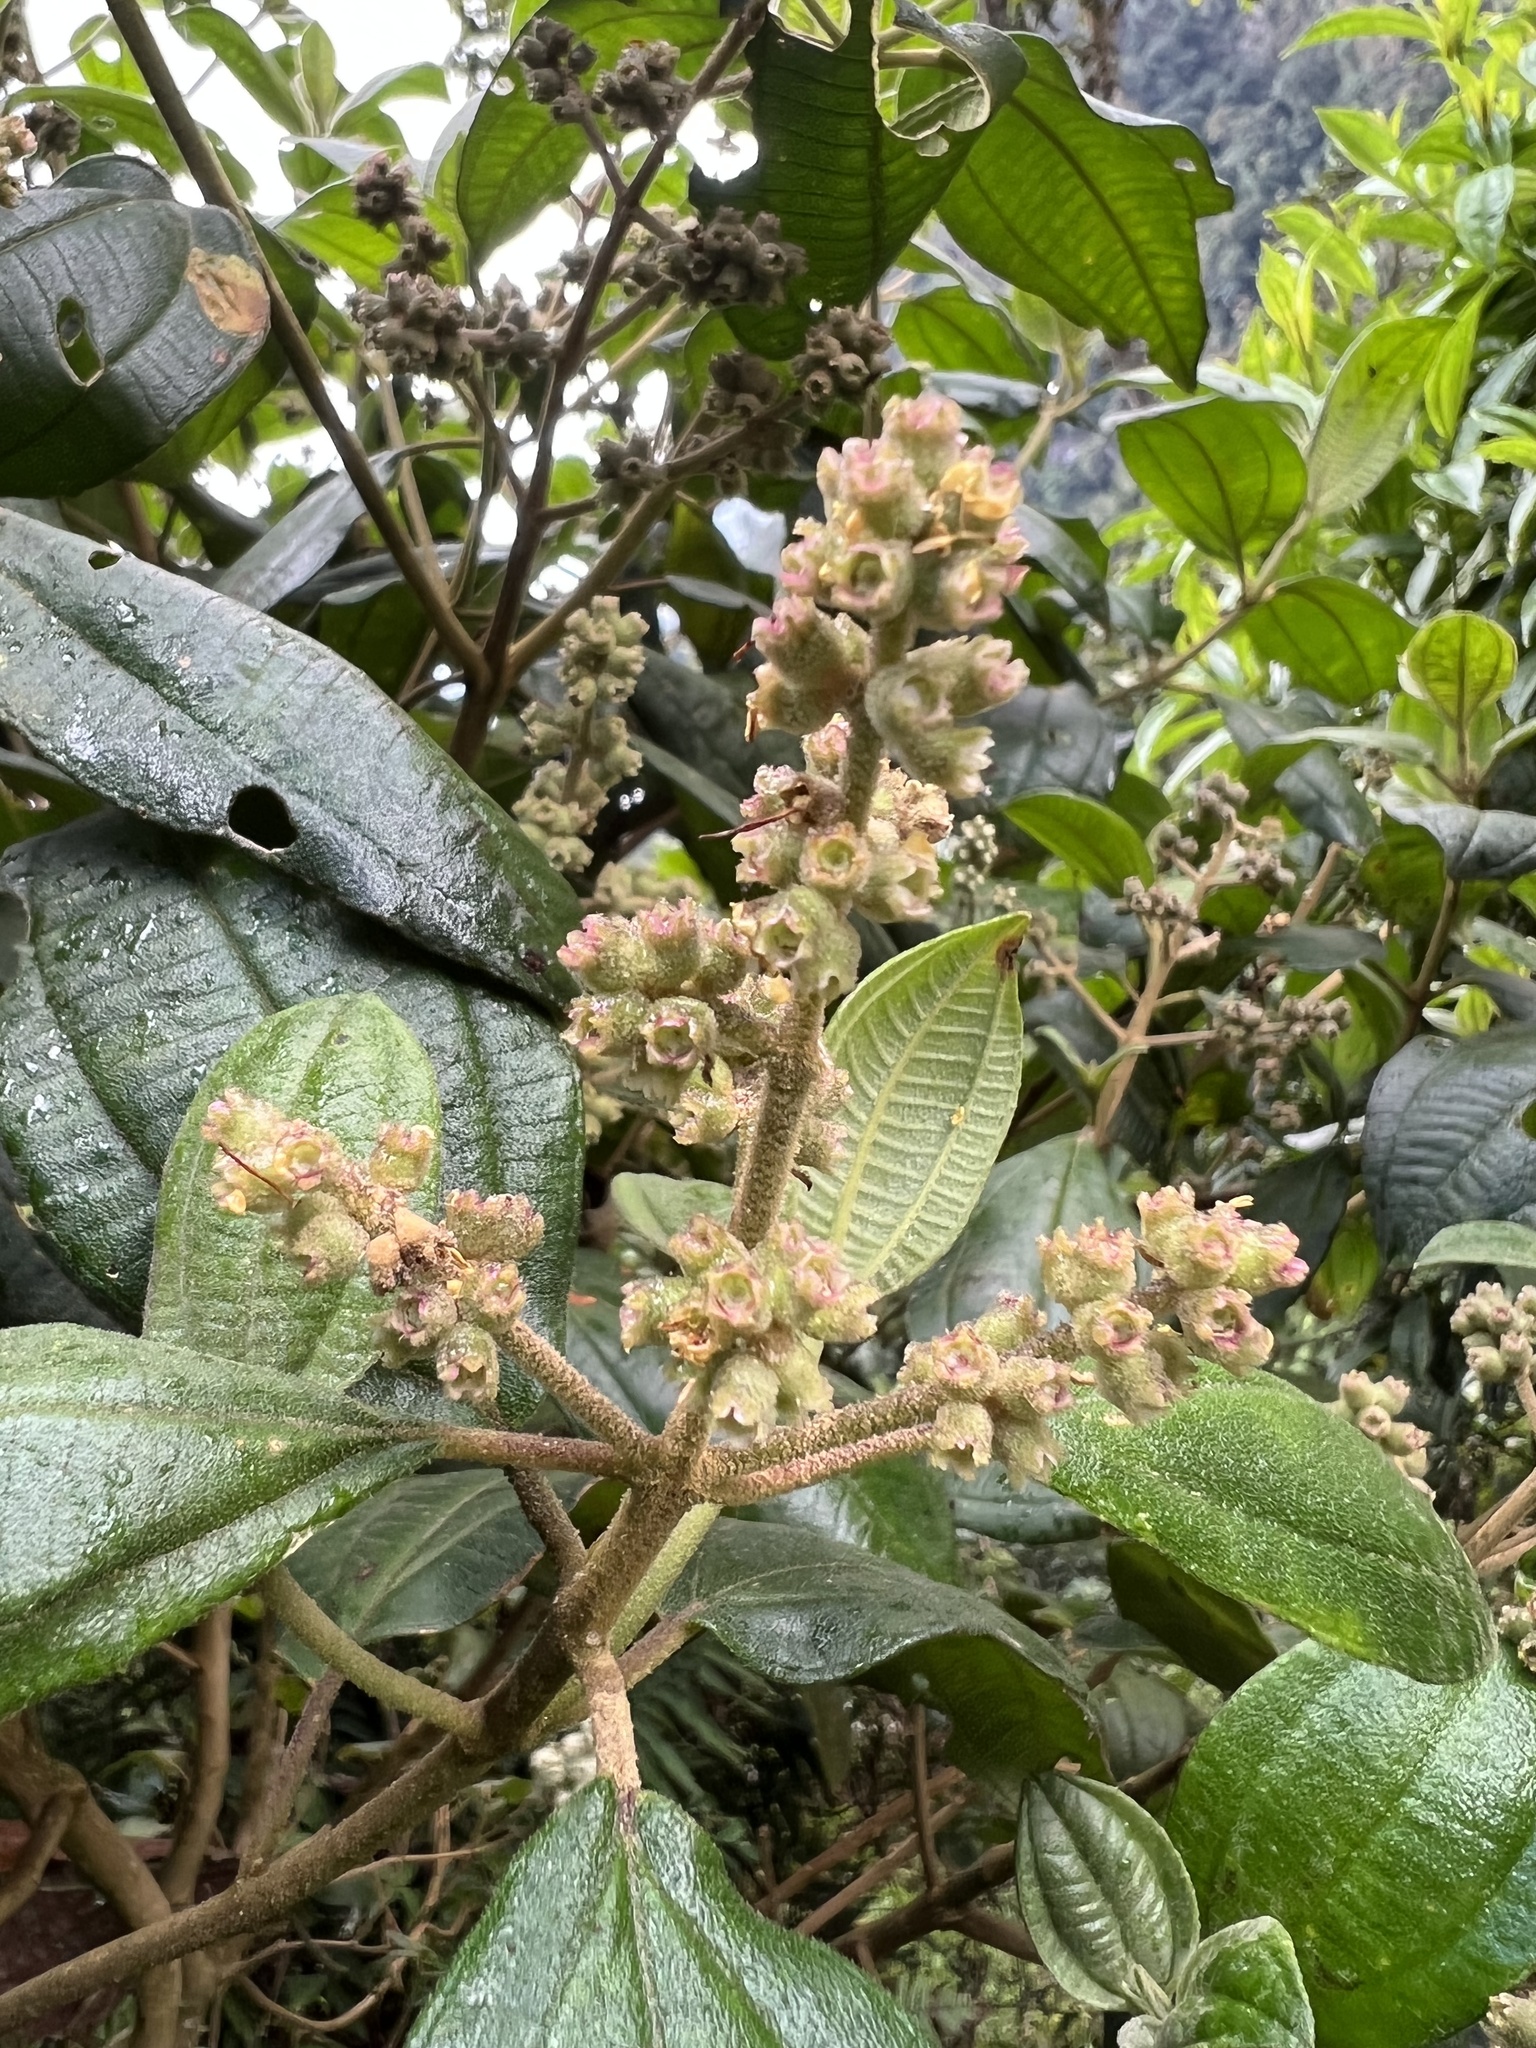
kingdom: Plantae
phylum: Tracheophyta
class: Magnoliopsida
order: Myrtales
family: Melastomataceae
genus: Miconia
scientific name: Miconia cataractae
